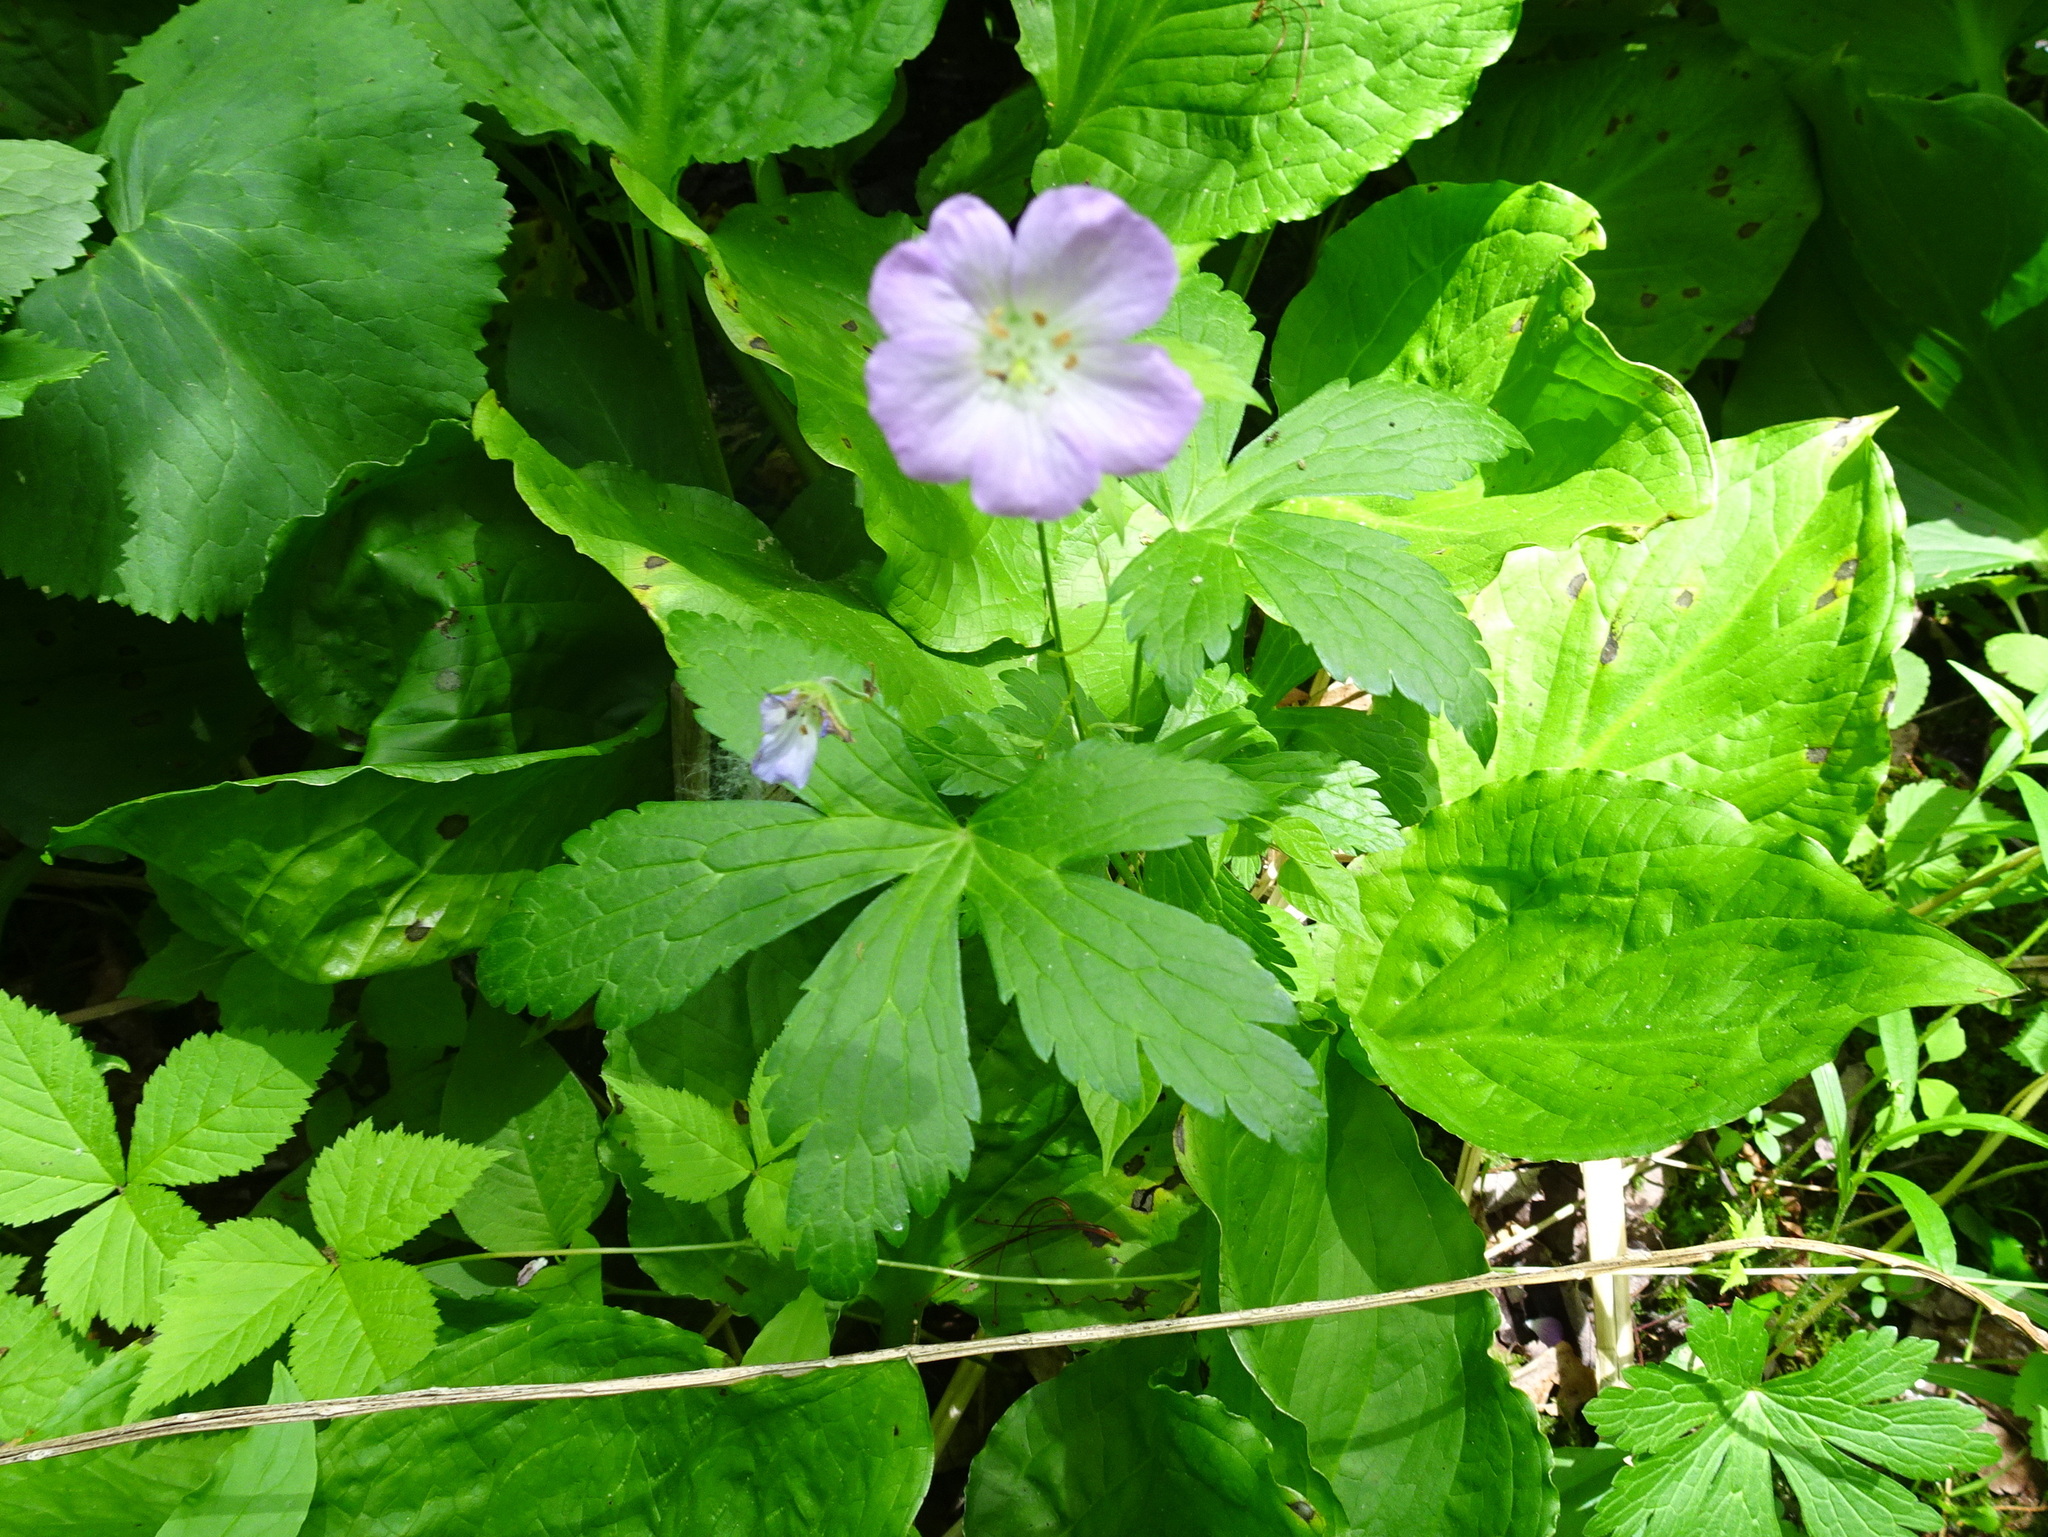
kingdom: Plantae
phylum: Tracheophyta
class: Magnoliopsida
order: Geraniales
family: Geraniaceae
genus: Geranium
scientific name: Geranium maculatum
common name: Spotted geranium
